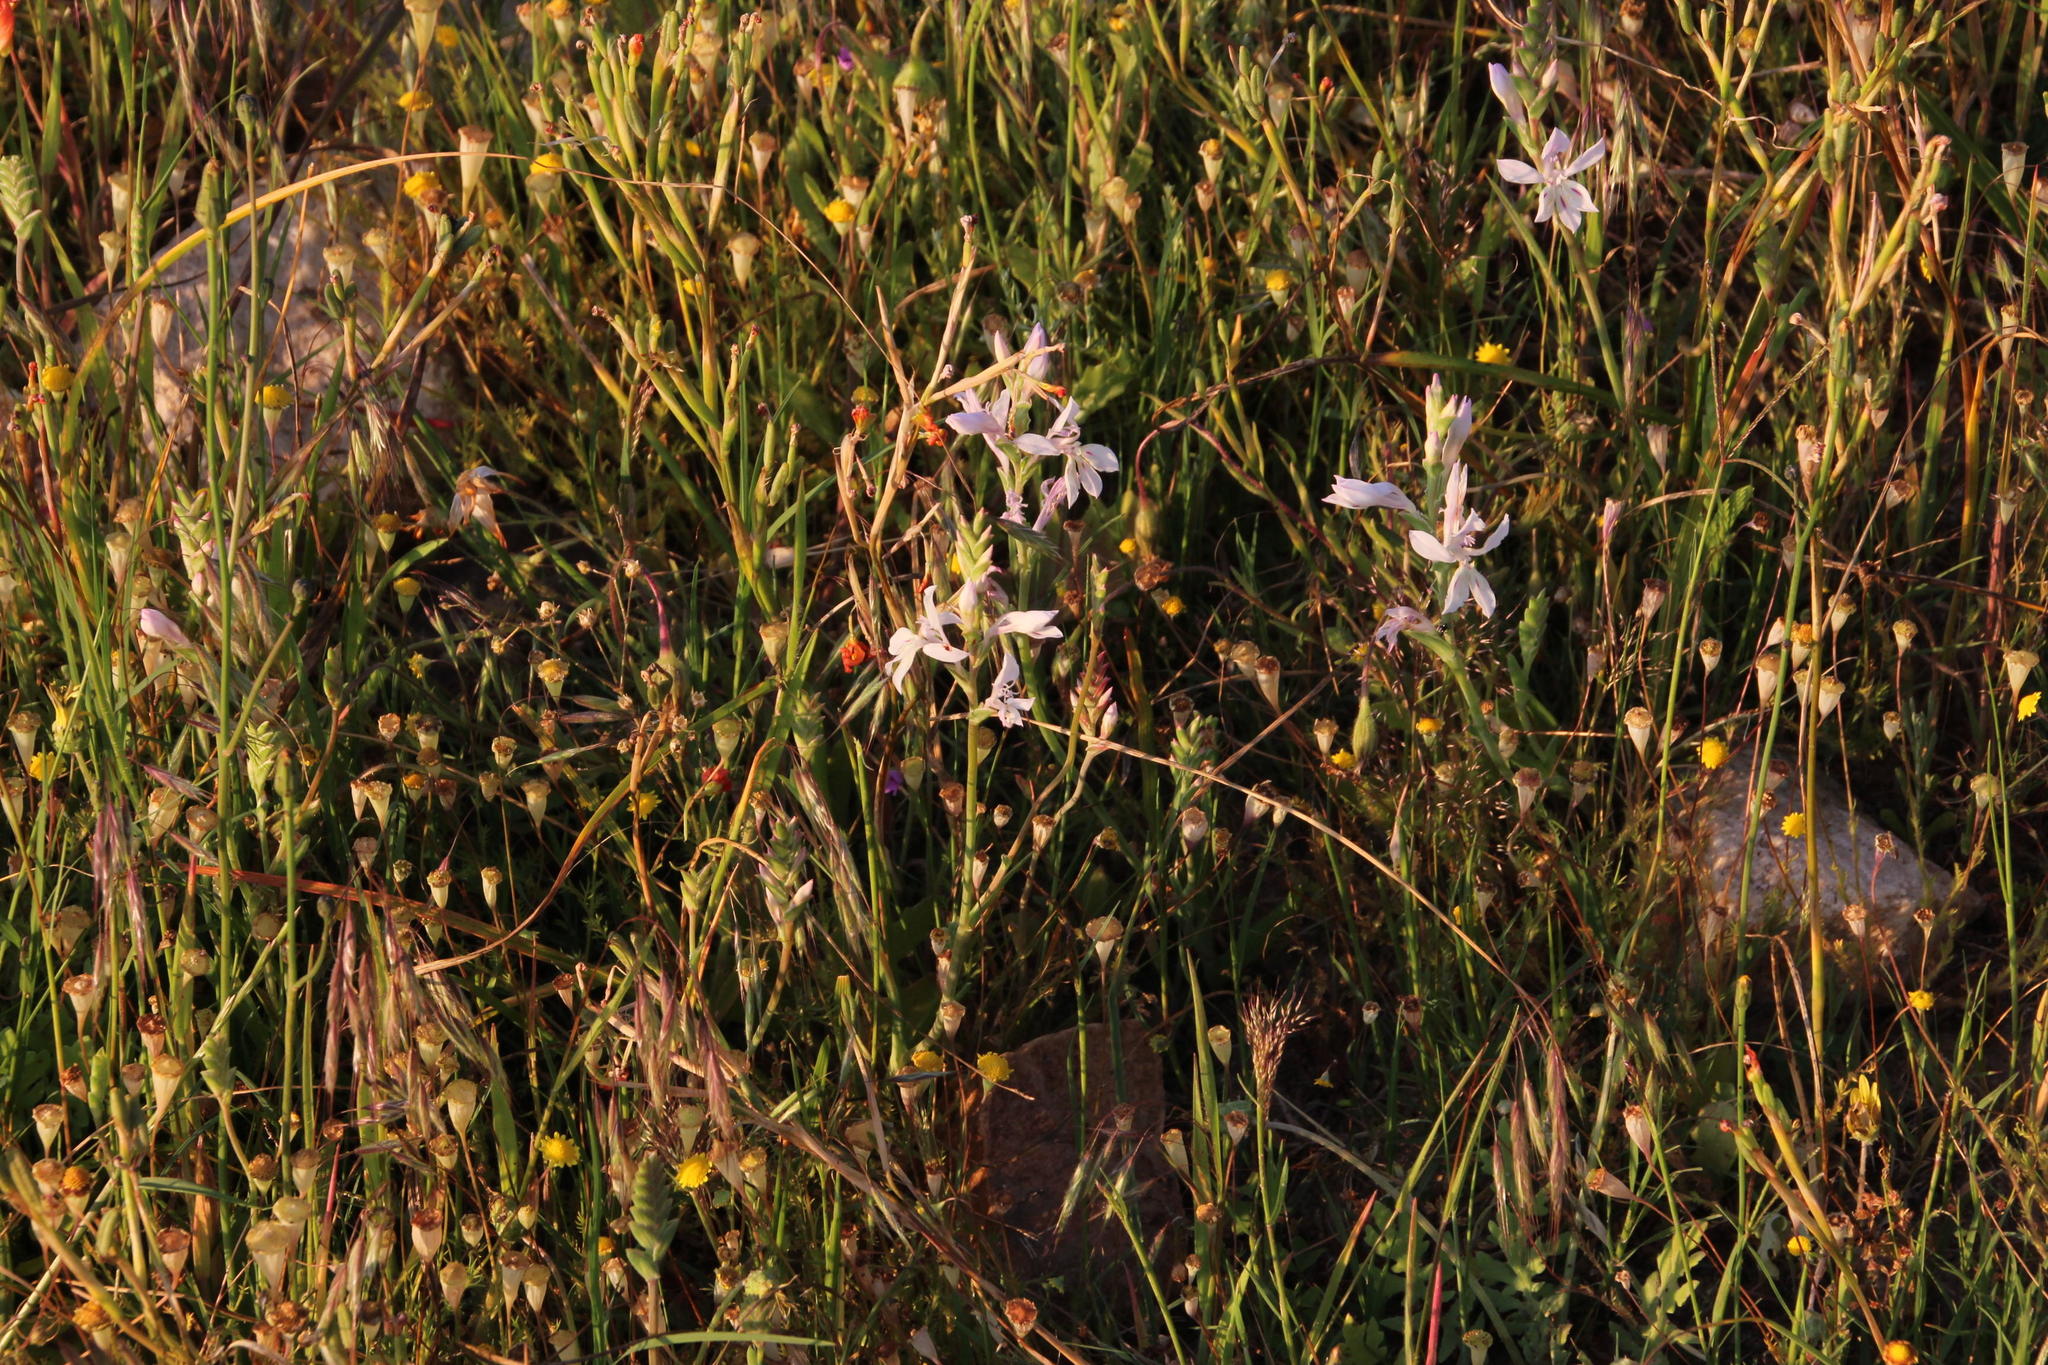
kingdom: Plantae
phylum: Tracheophyta
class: Liliopsida
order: Asparagales
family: Iridaceae
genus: Lapeirousia
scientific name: Lapeirousia divaricata
